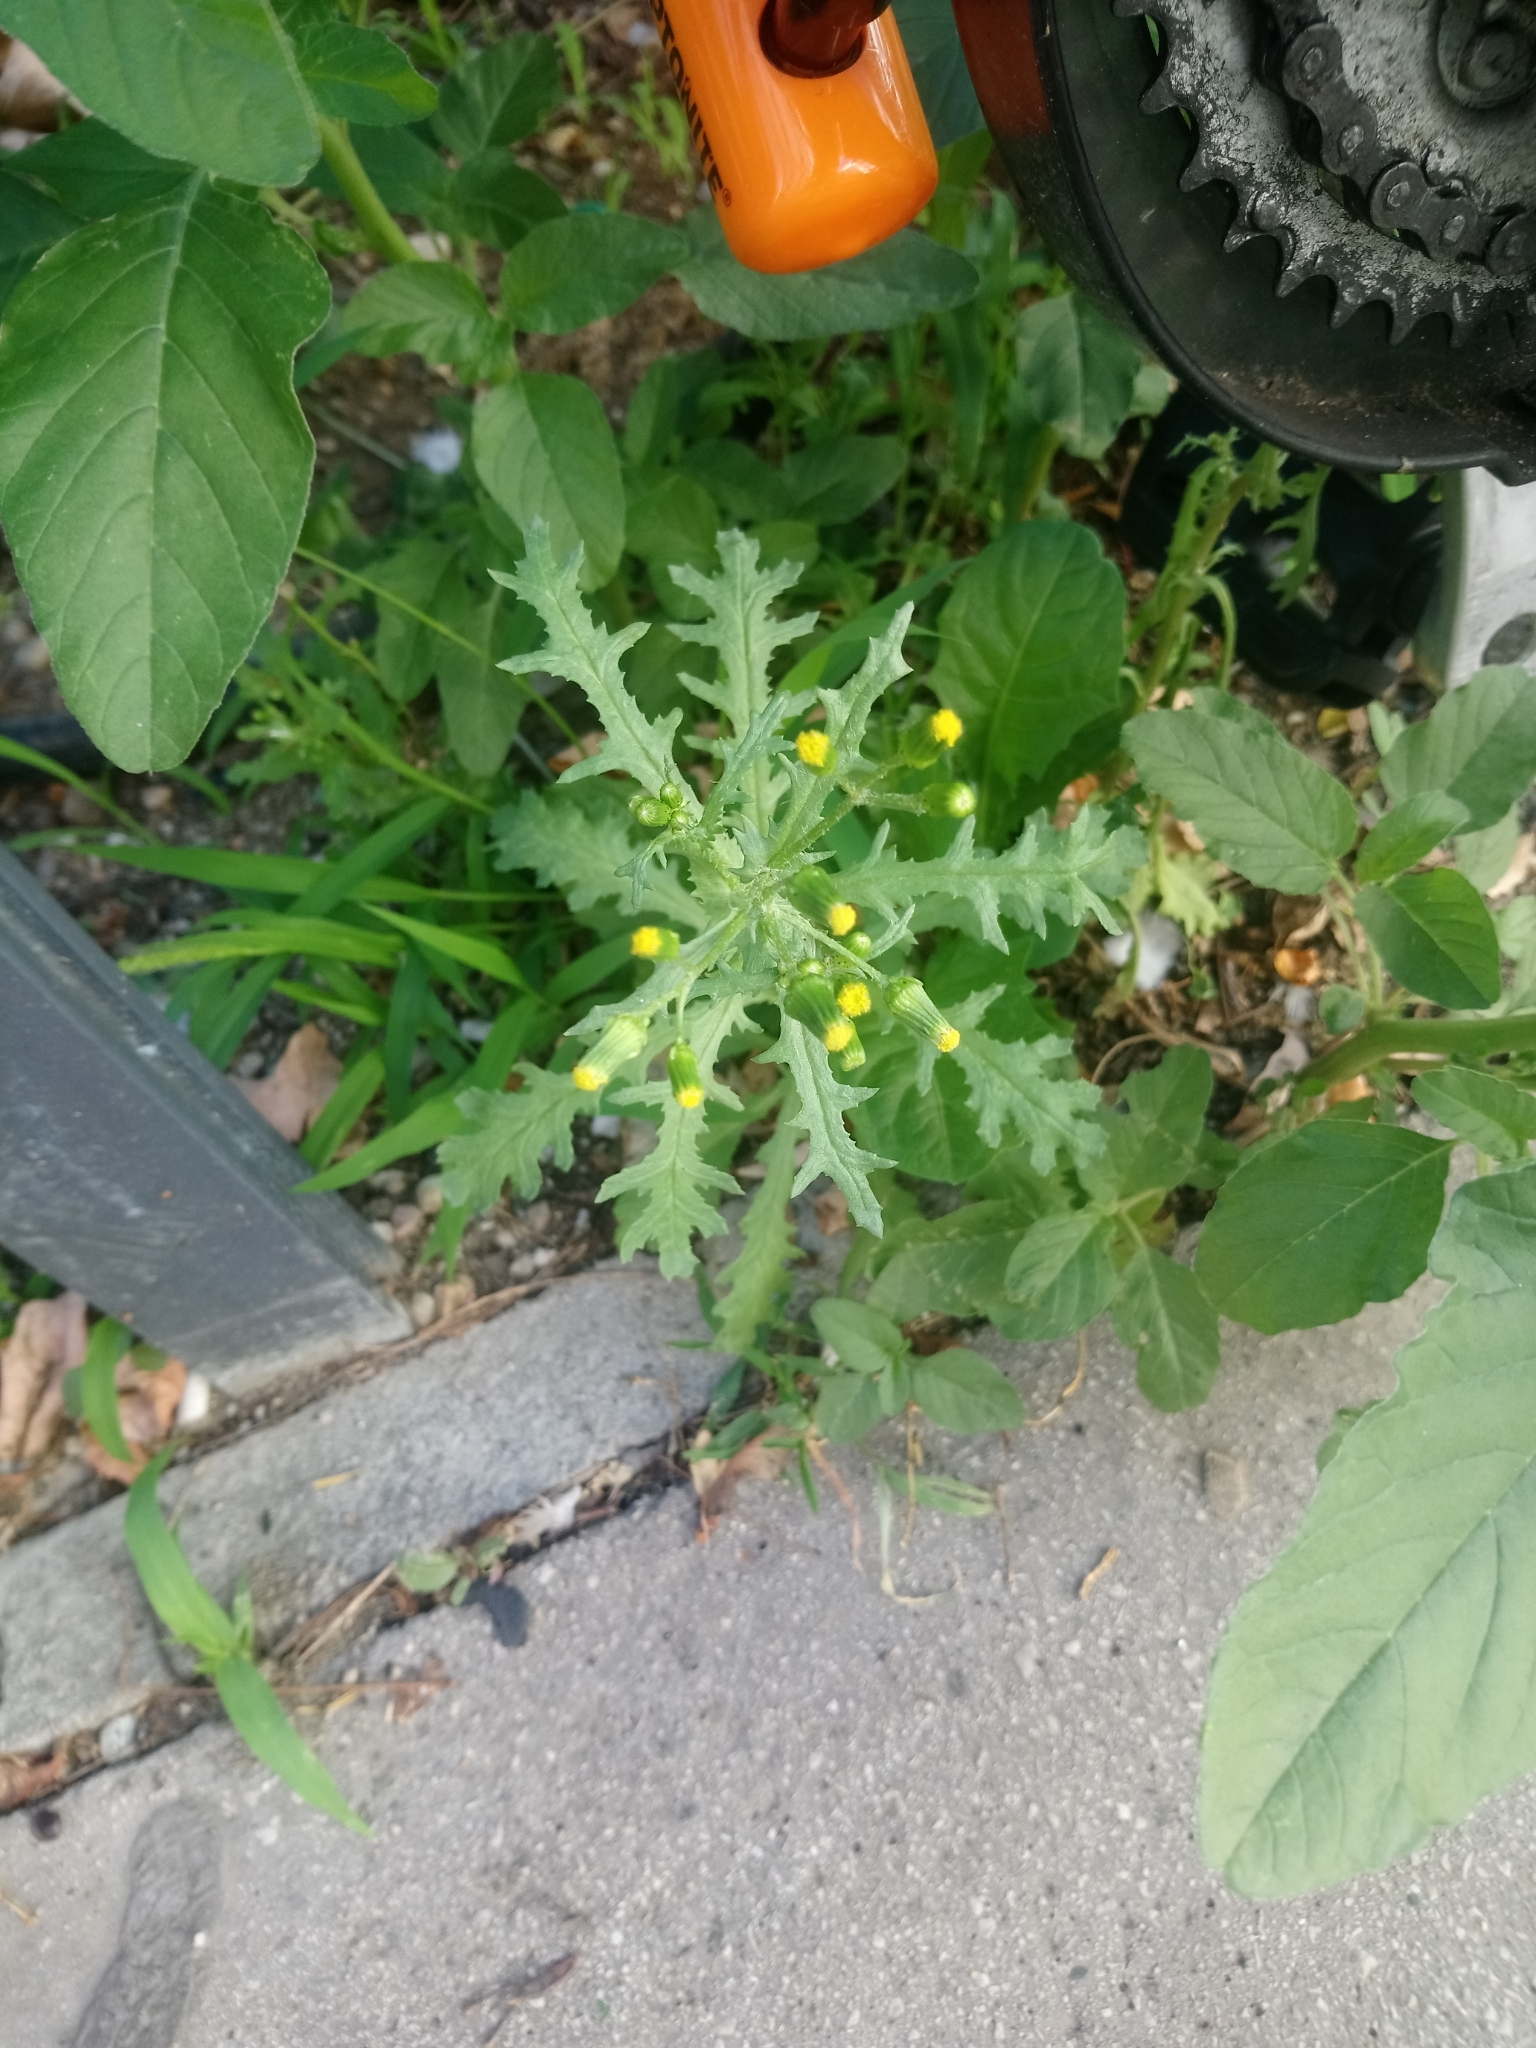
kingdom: Plantae
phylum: Tracheophyta
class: Magnoliopsida
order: Asterales
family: Asteraceae
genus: Senecio
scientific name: Senecio vulgaris
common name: Old-man-in-the-spring
